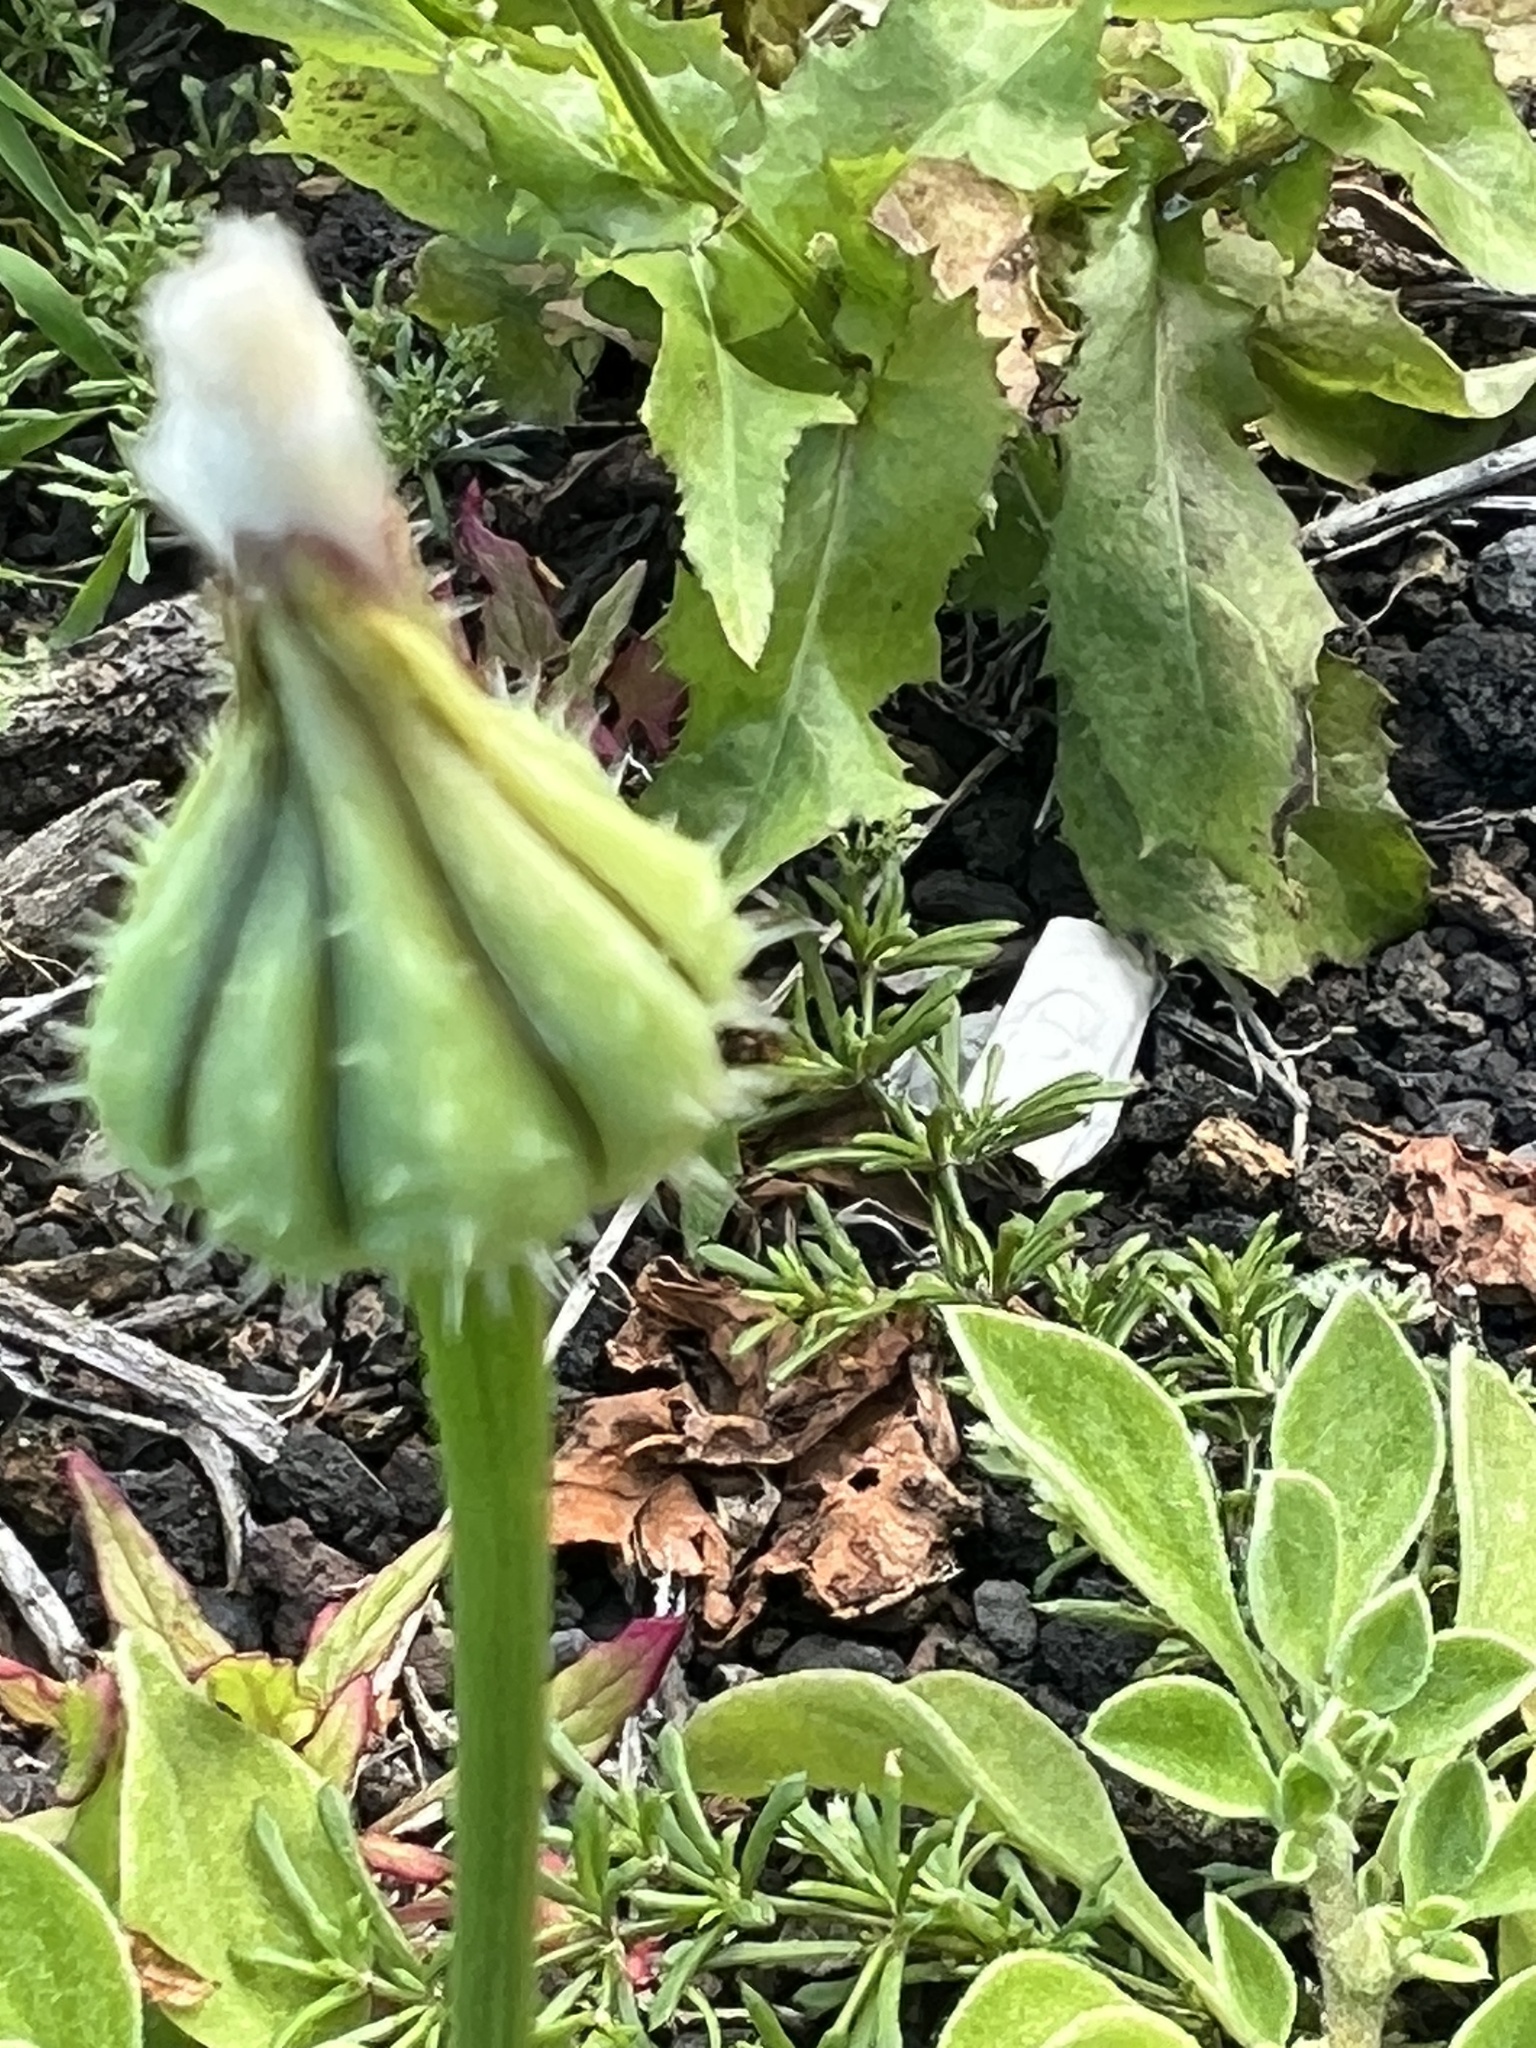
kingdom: Plantae
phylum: Tracheophyta
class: Magnoliopsida
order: Asterales
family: Asteraceae
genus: Urospermum
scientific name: Urospermum picroides
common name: False hawkbit
